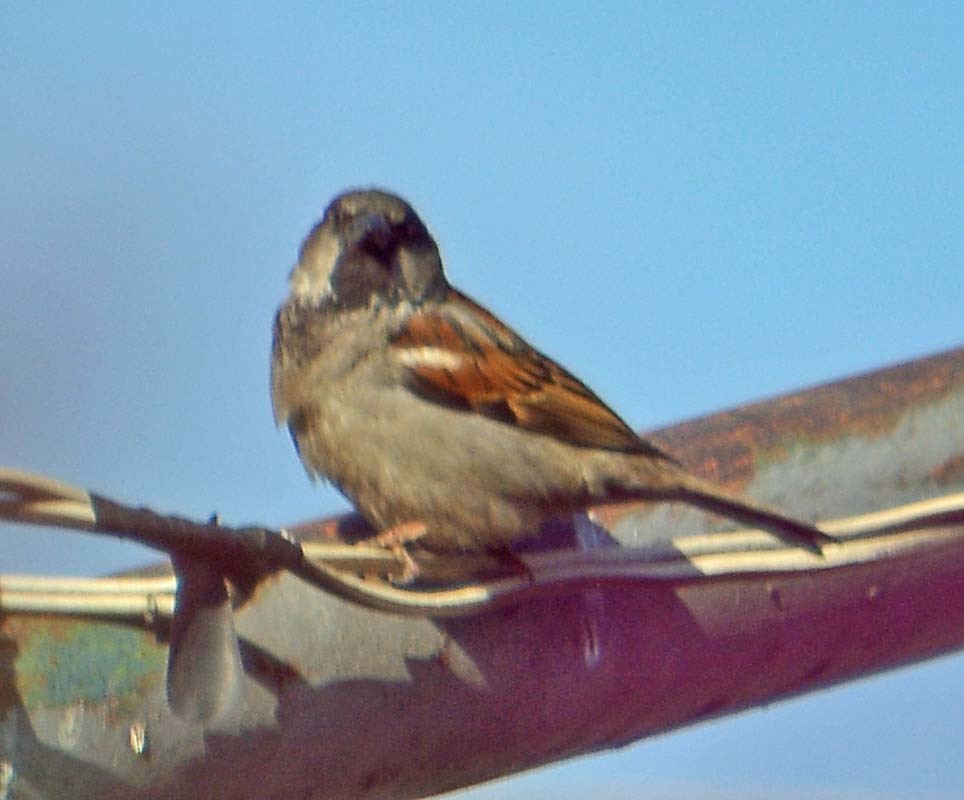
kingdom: Animalia
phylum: Chordata
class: Aves
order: Passeriformes
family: Passeridae
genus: Passer
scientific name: Passer domesticus
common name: House sparrow
